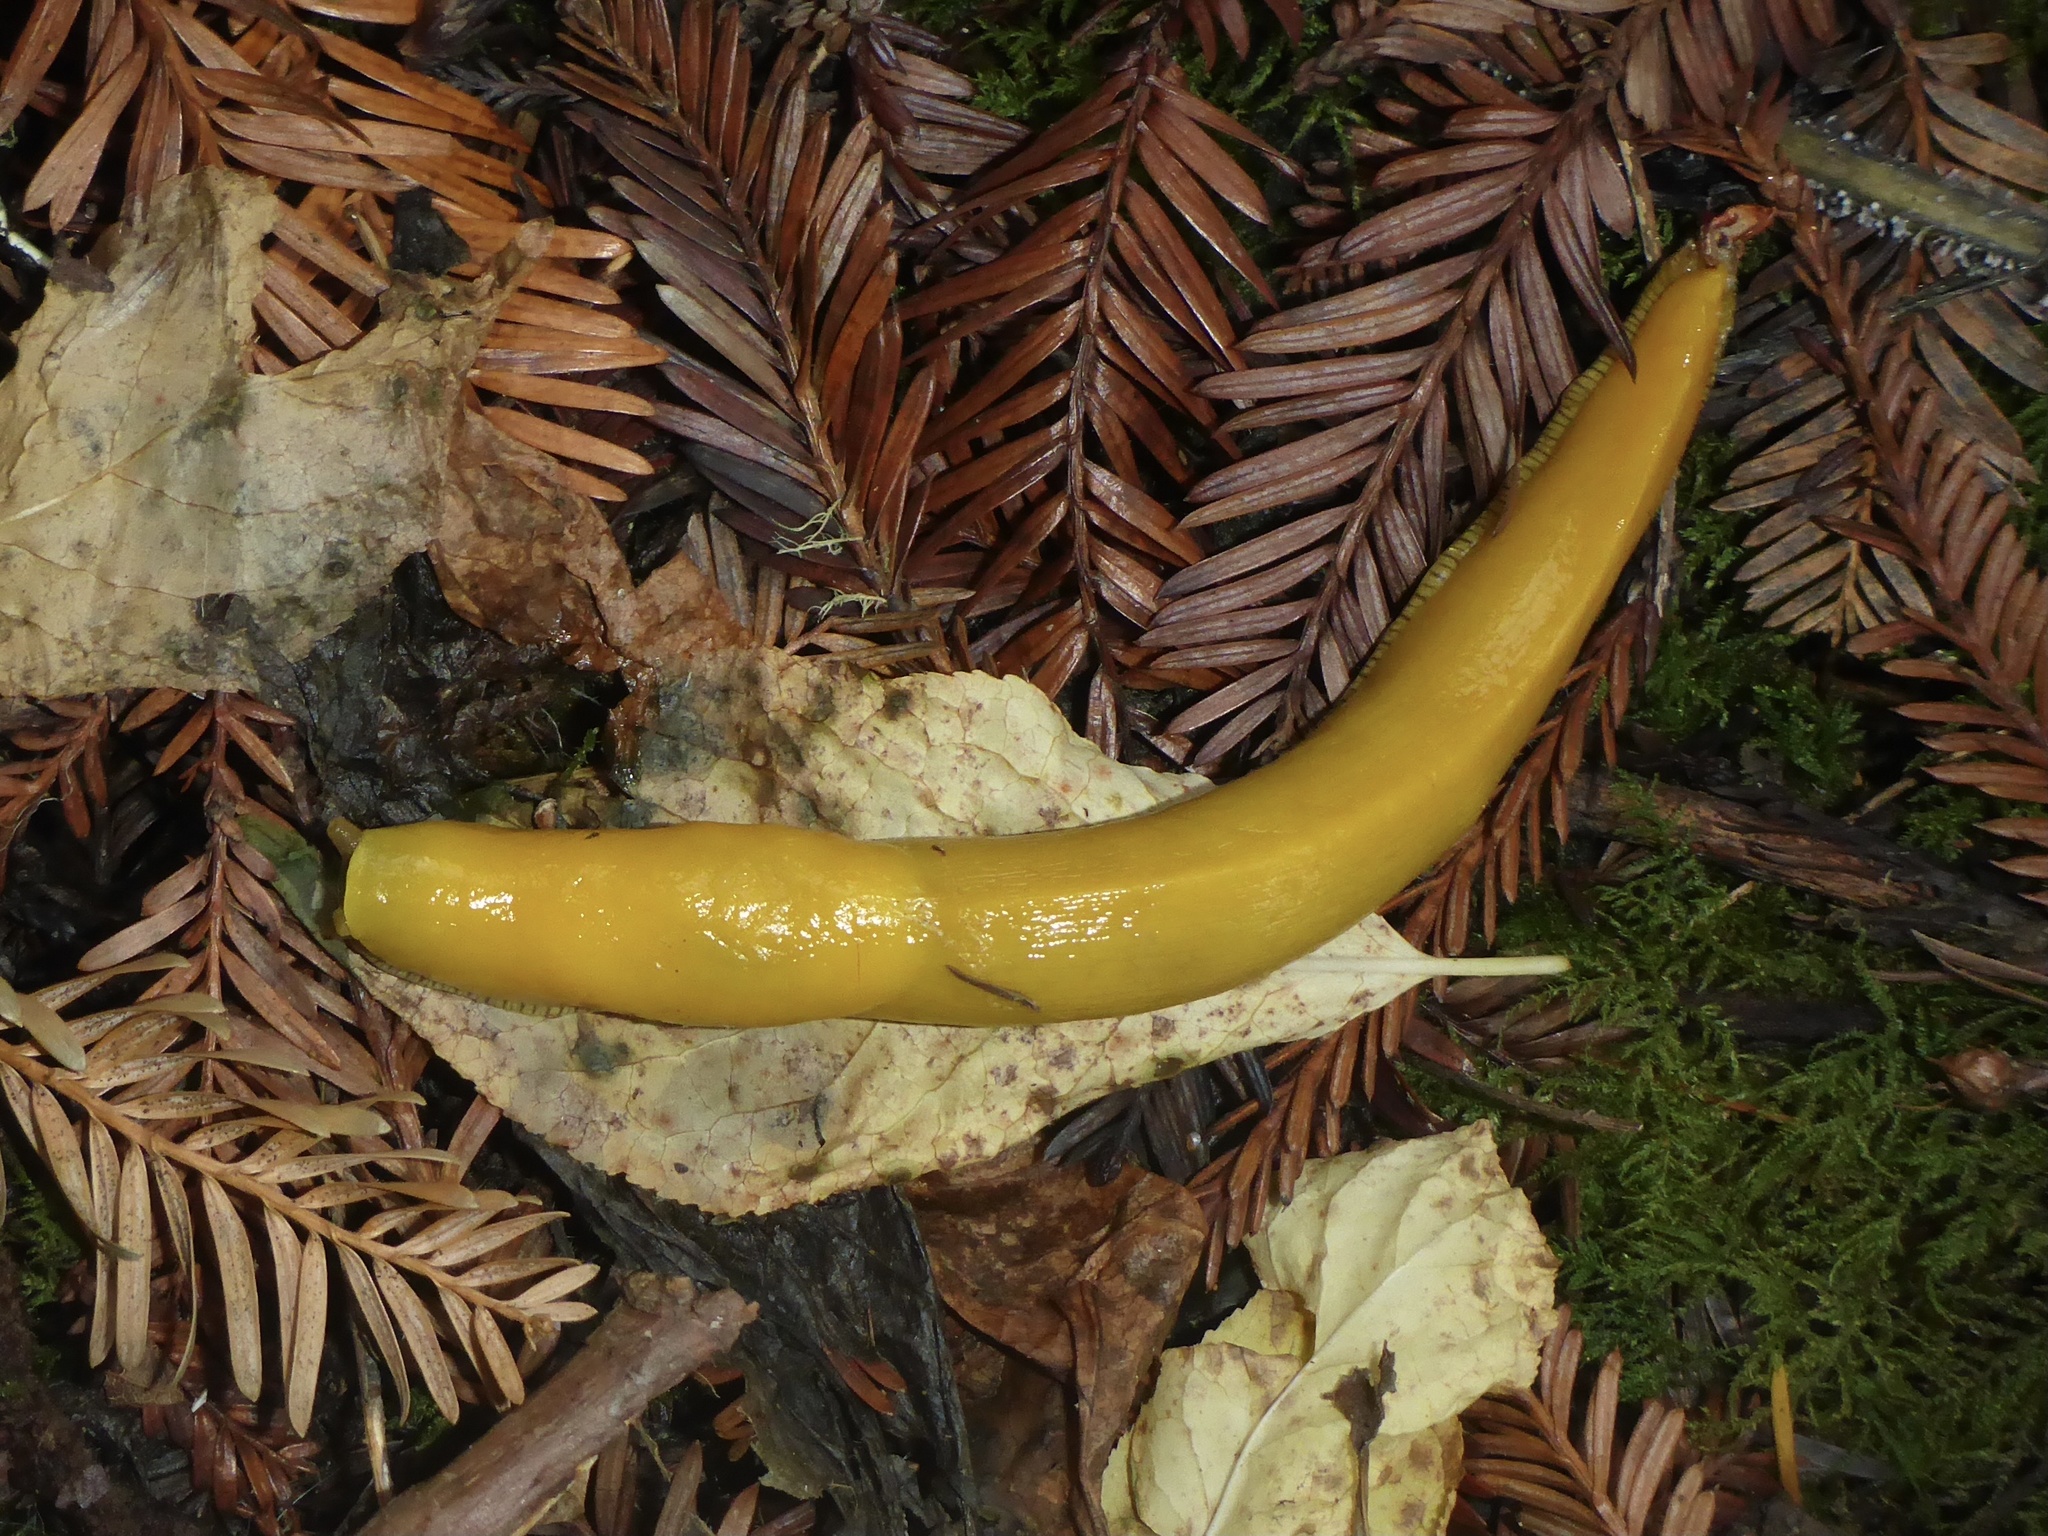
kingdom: Animalia
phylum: Mollusca
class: Gastropoda
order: Stylommatophora
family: Ariolimacidae
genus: Ariolimax
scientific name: Ariolimax californicus
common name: California banana slug
